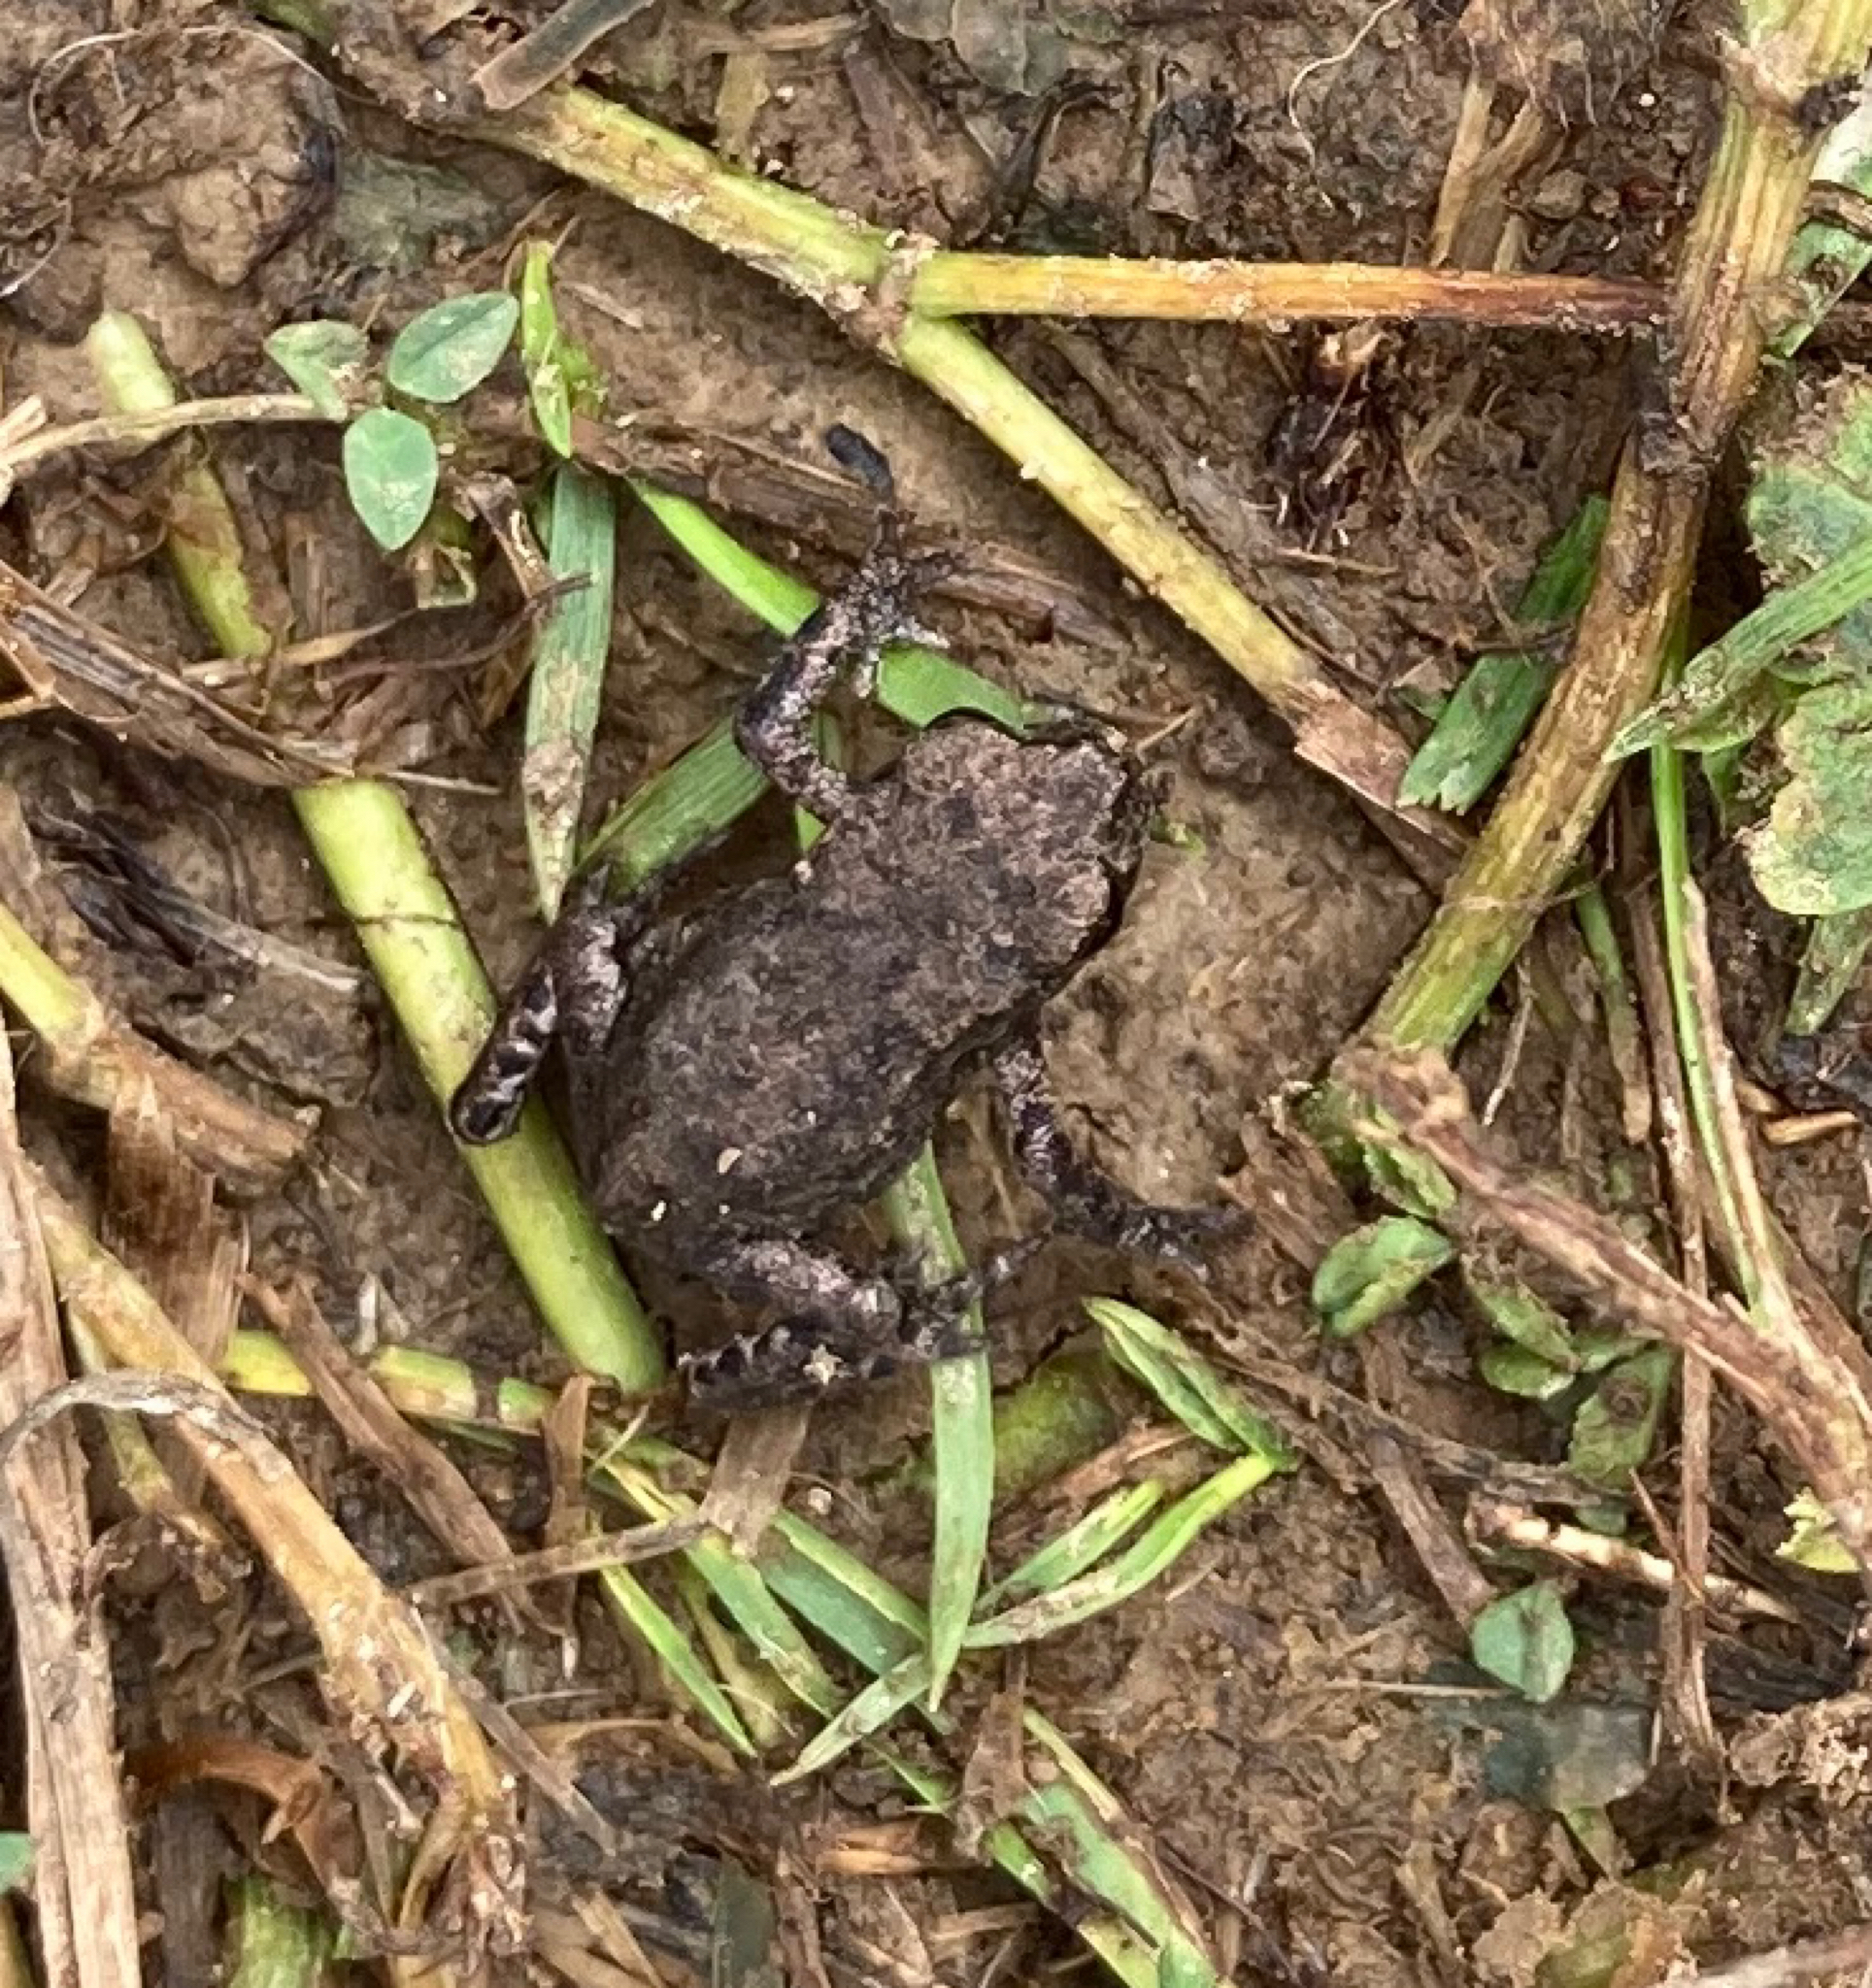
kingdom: Animalia
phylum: Chordata
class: Amphibia
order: Anura
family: Bufonidae
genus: Bufo
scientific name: Bufo bufo
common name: Common toad
